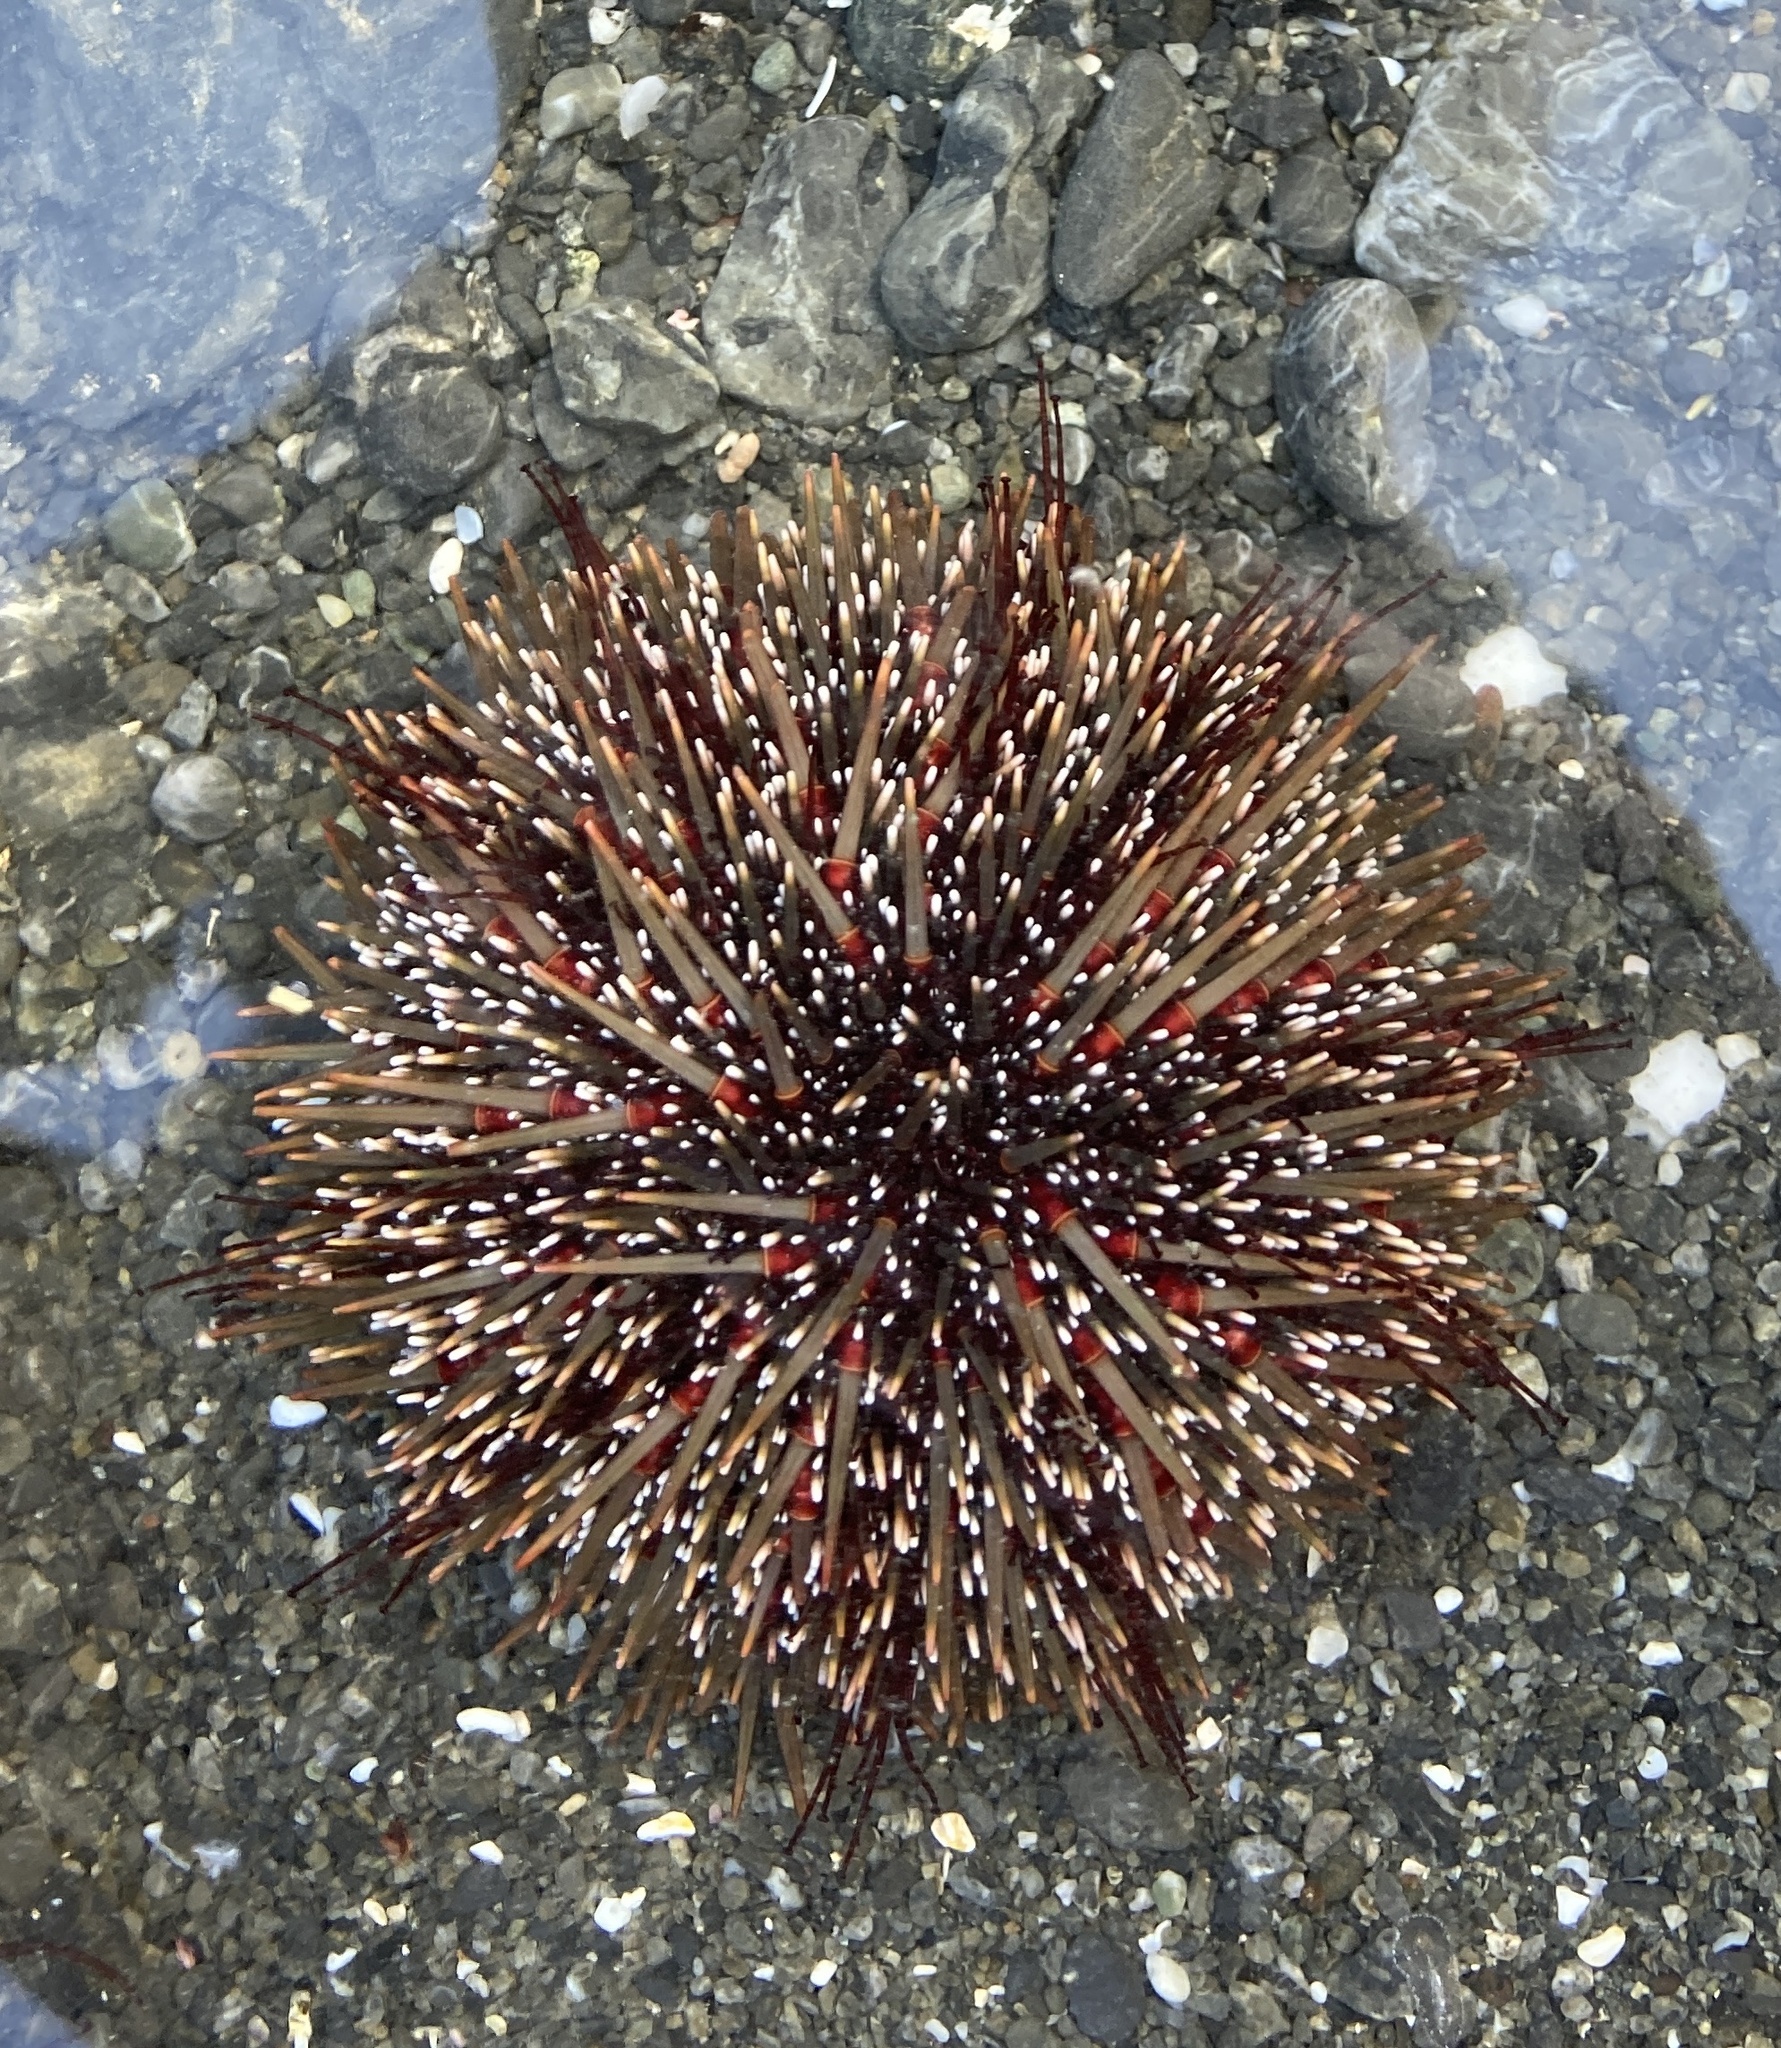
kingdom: Animalia
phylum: Echinodermata
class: Echinoidea
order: Camarodonta
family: Echinometridae
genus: Evechinus
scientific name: Evechinus chloroticus
